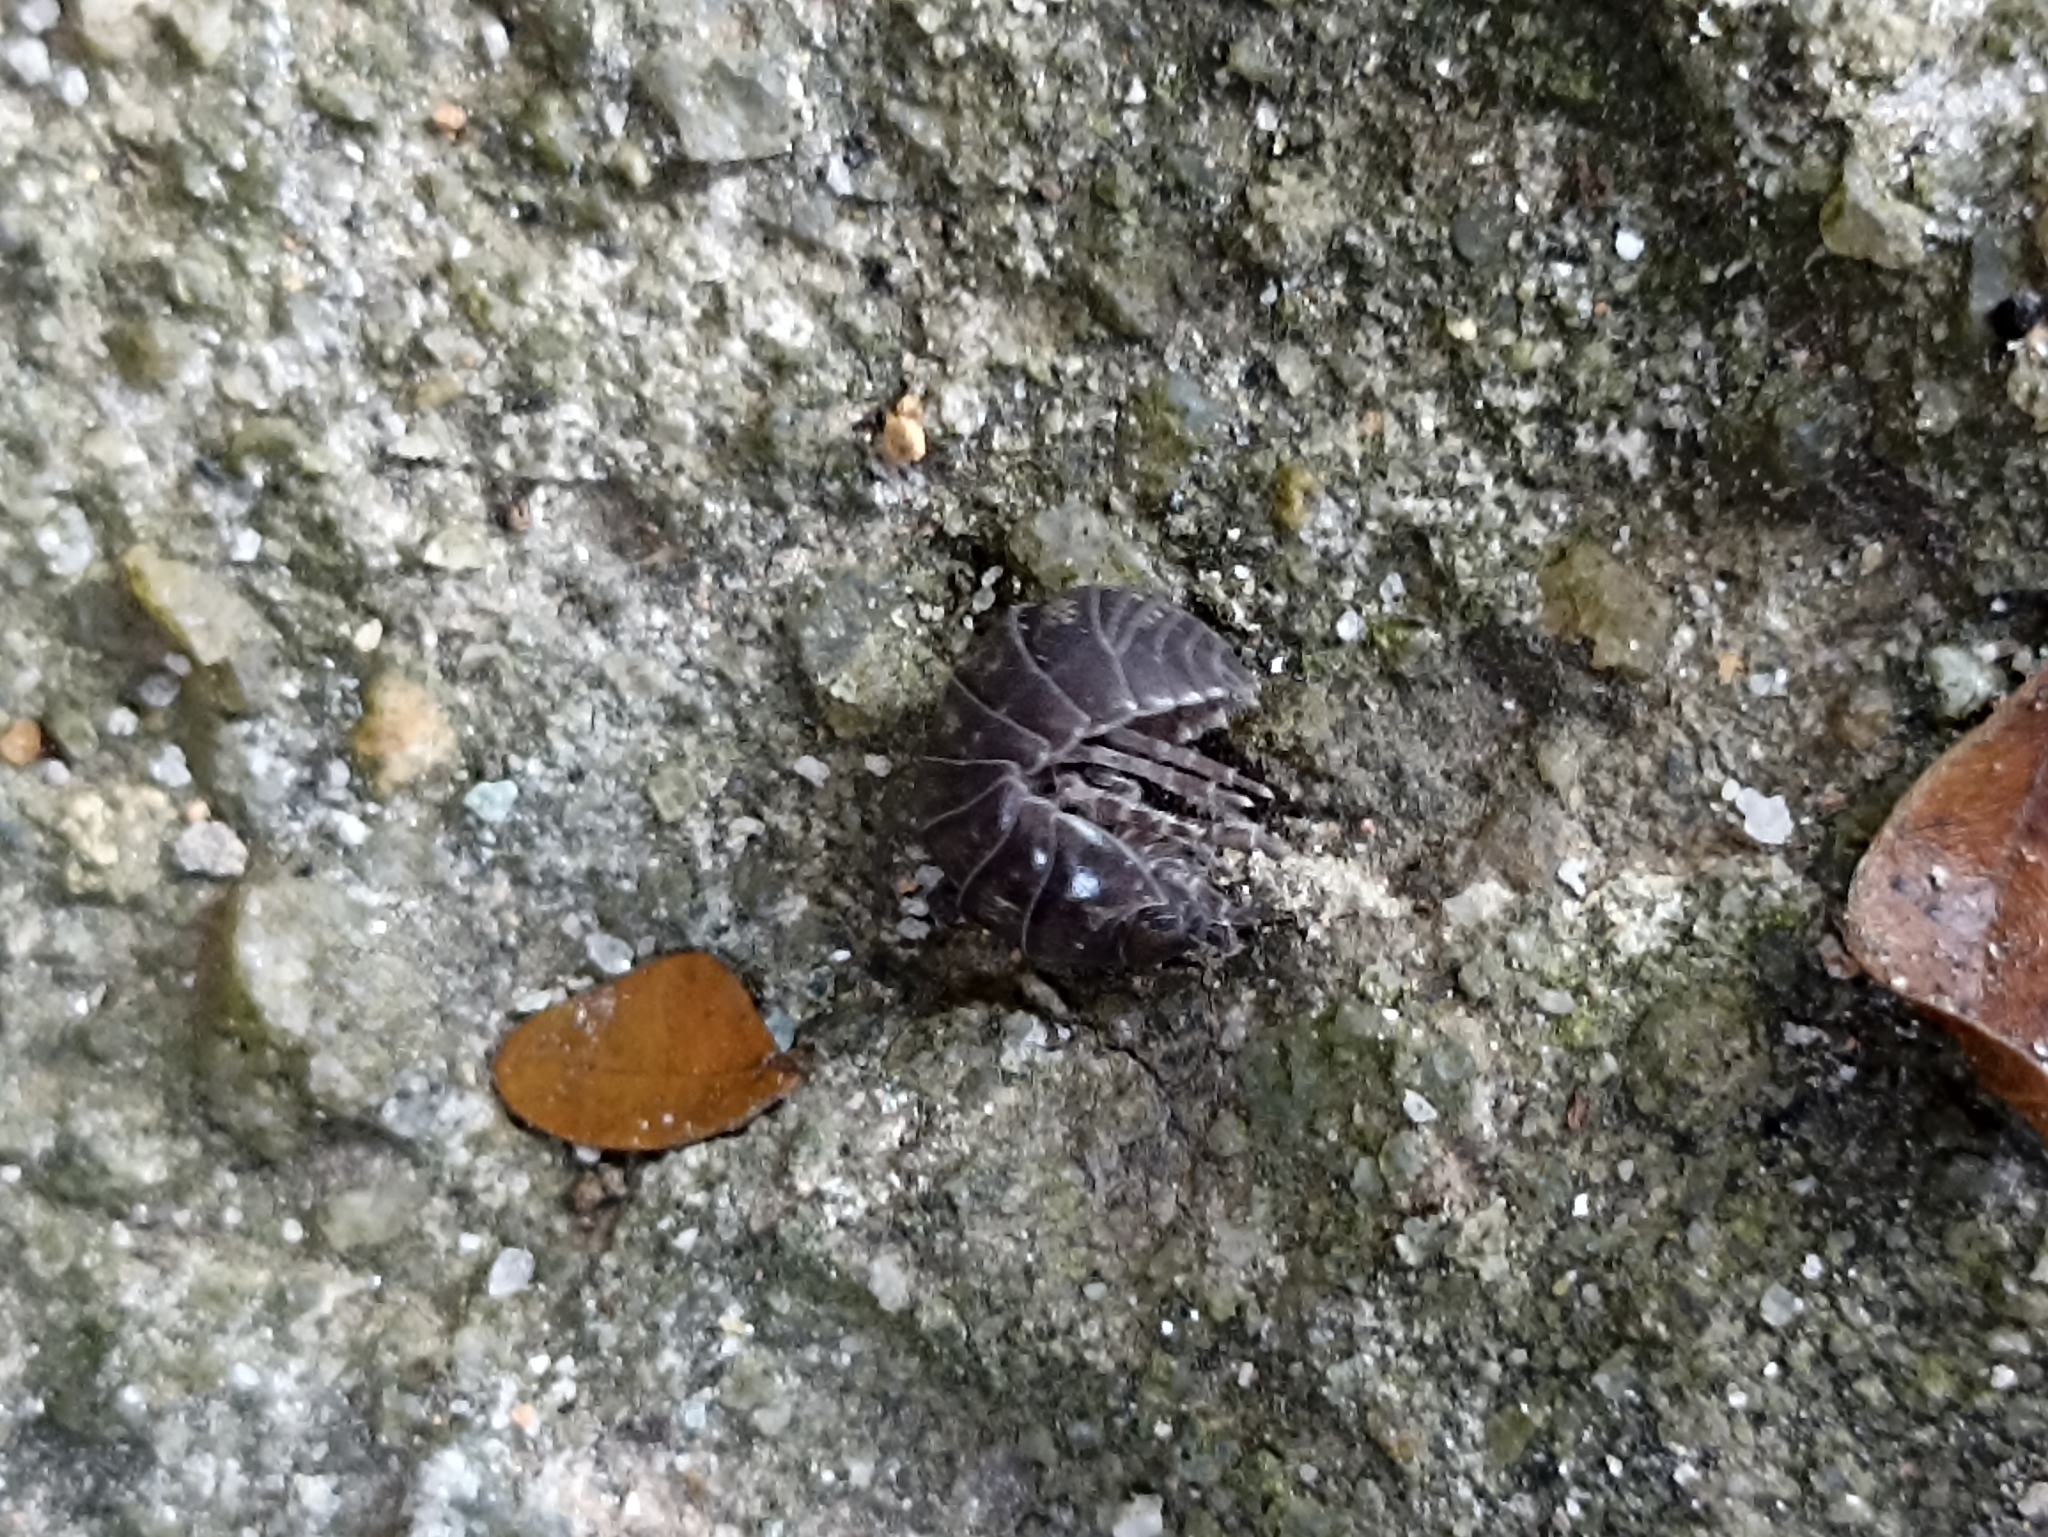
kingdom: Animalia
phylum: Arthropoda
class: Malacostraca
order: Isopoda
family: Armadillidiidae
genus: Armadillidium
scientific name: Armadillidium vulgare
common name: Common pill woodlouse
